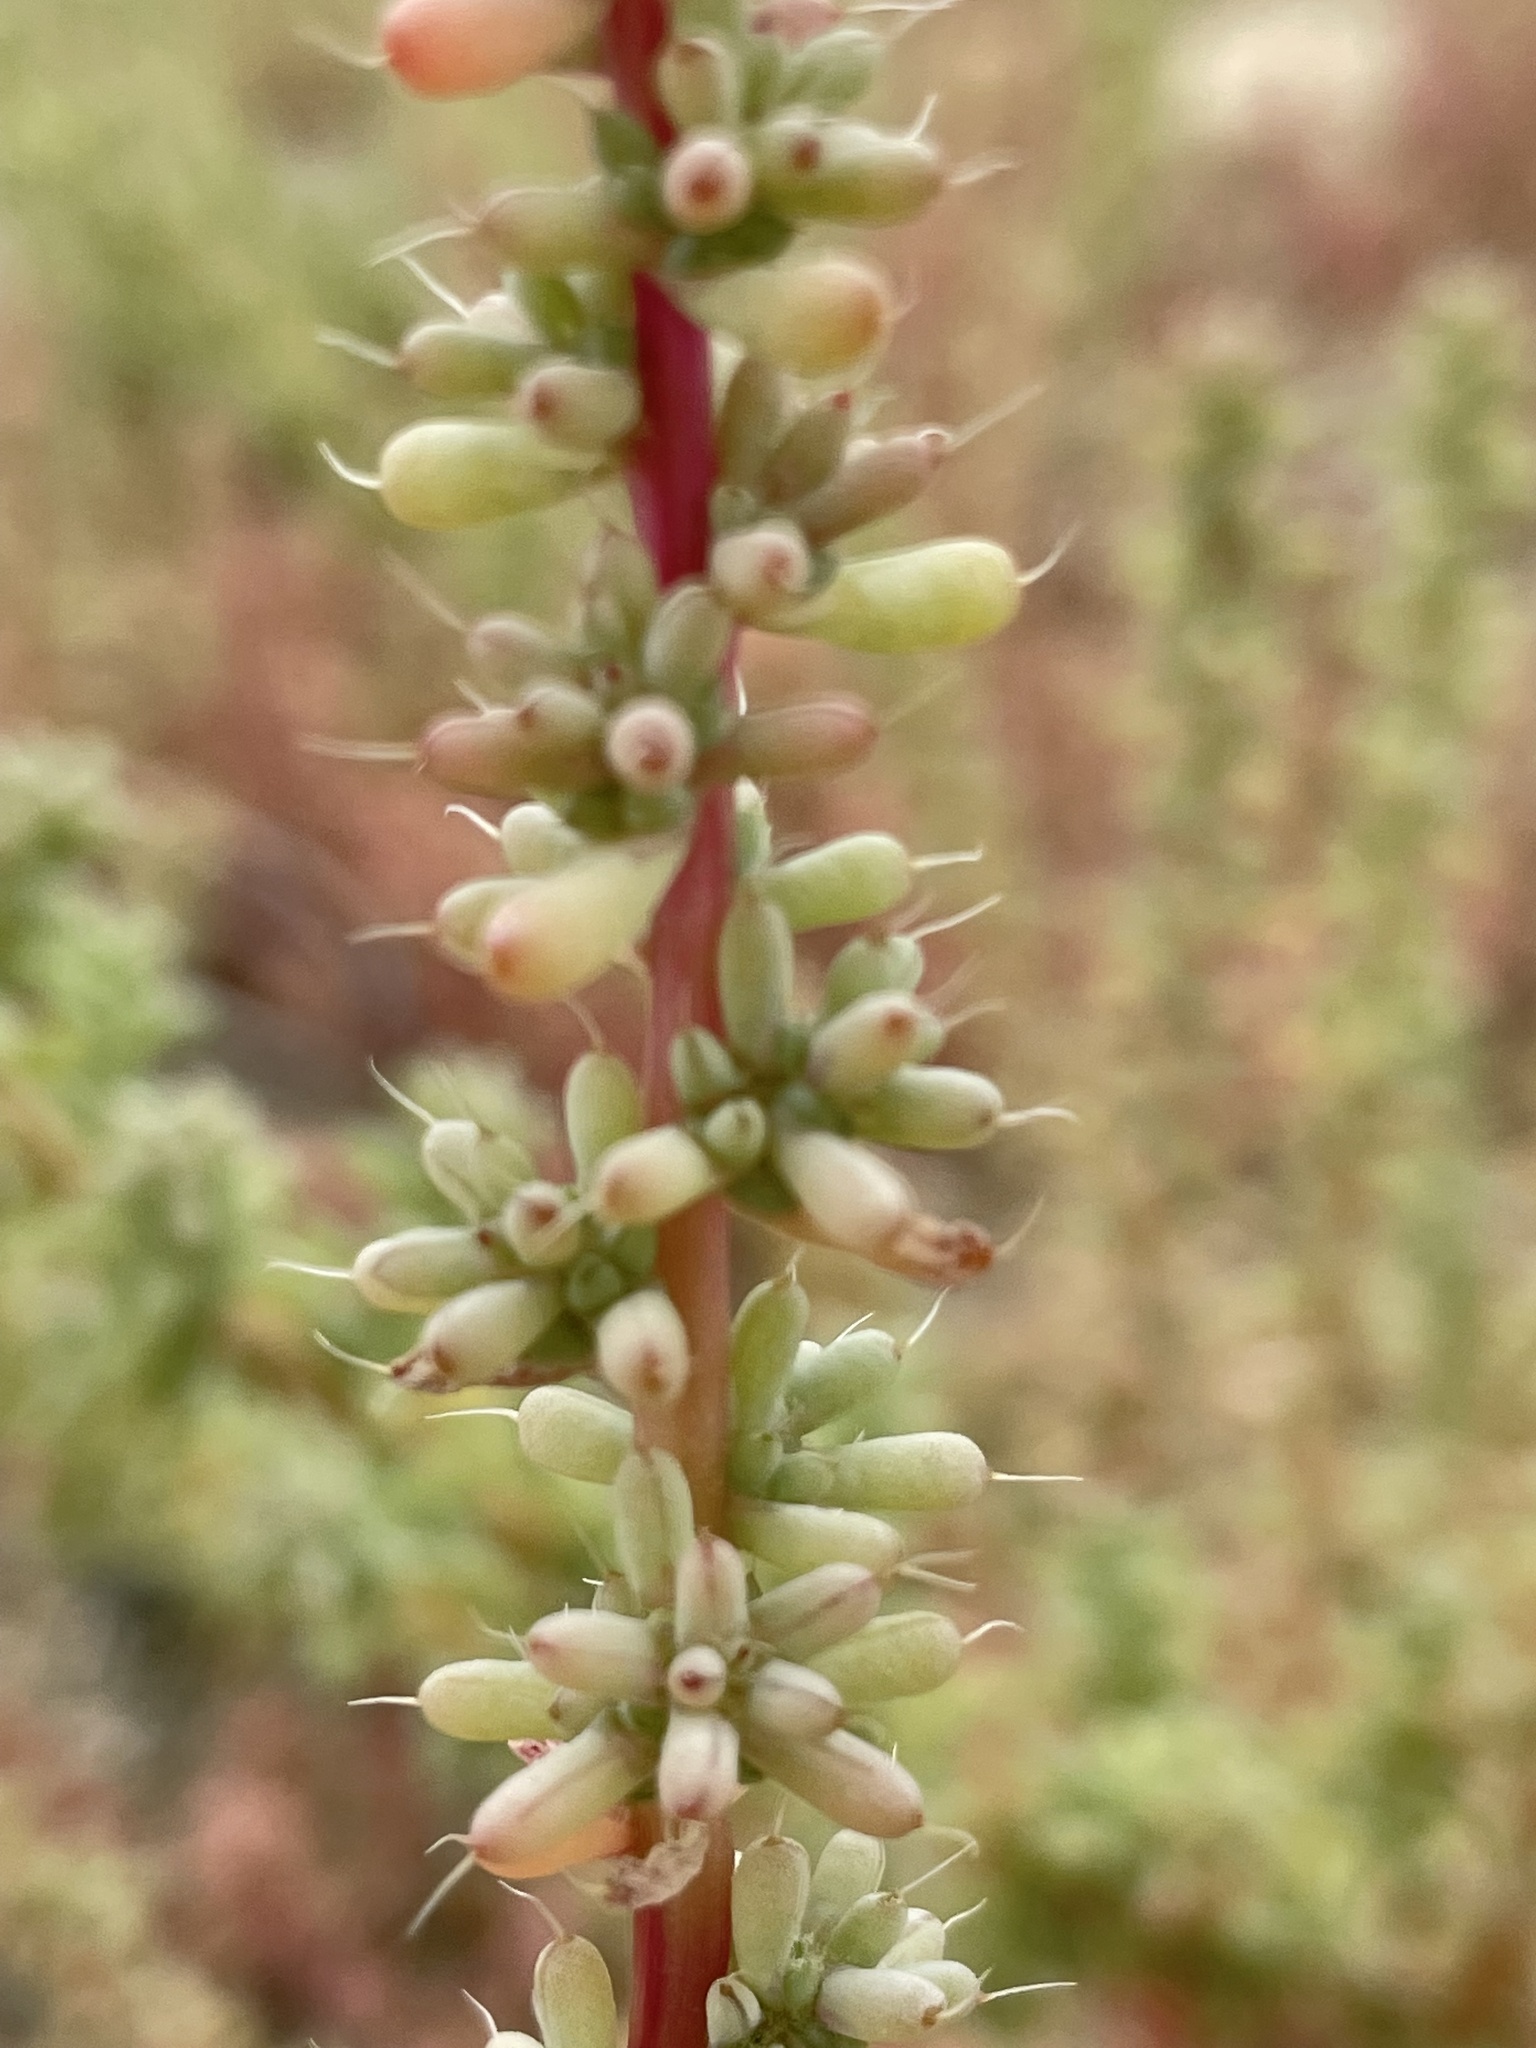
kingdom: Plantae
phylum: Tracheophyta
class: Magnoliopsida
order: Caryophyllales
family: Amaranthaceae
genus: Halogeton
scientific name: Halogeton glomeratus
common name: Saltlover
